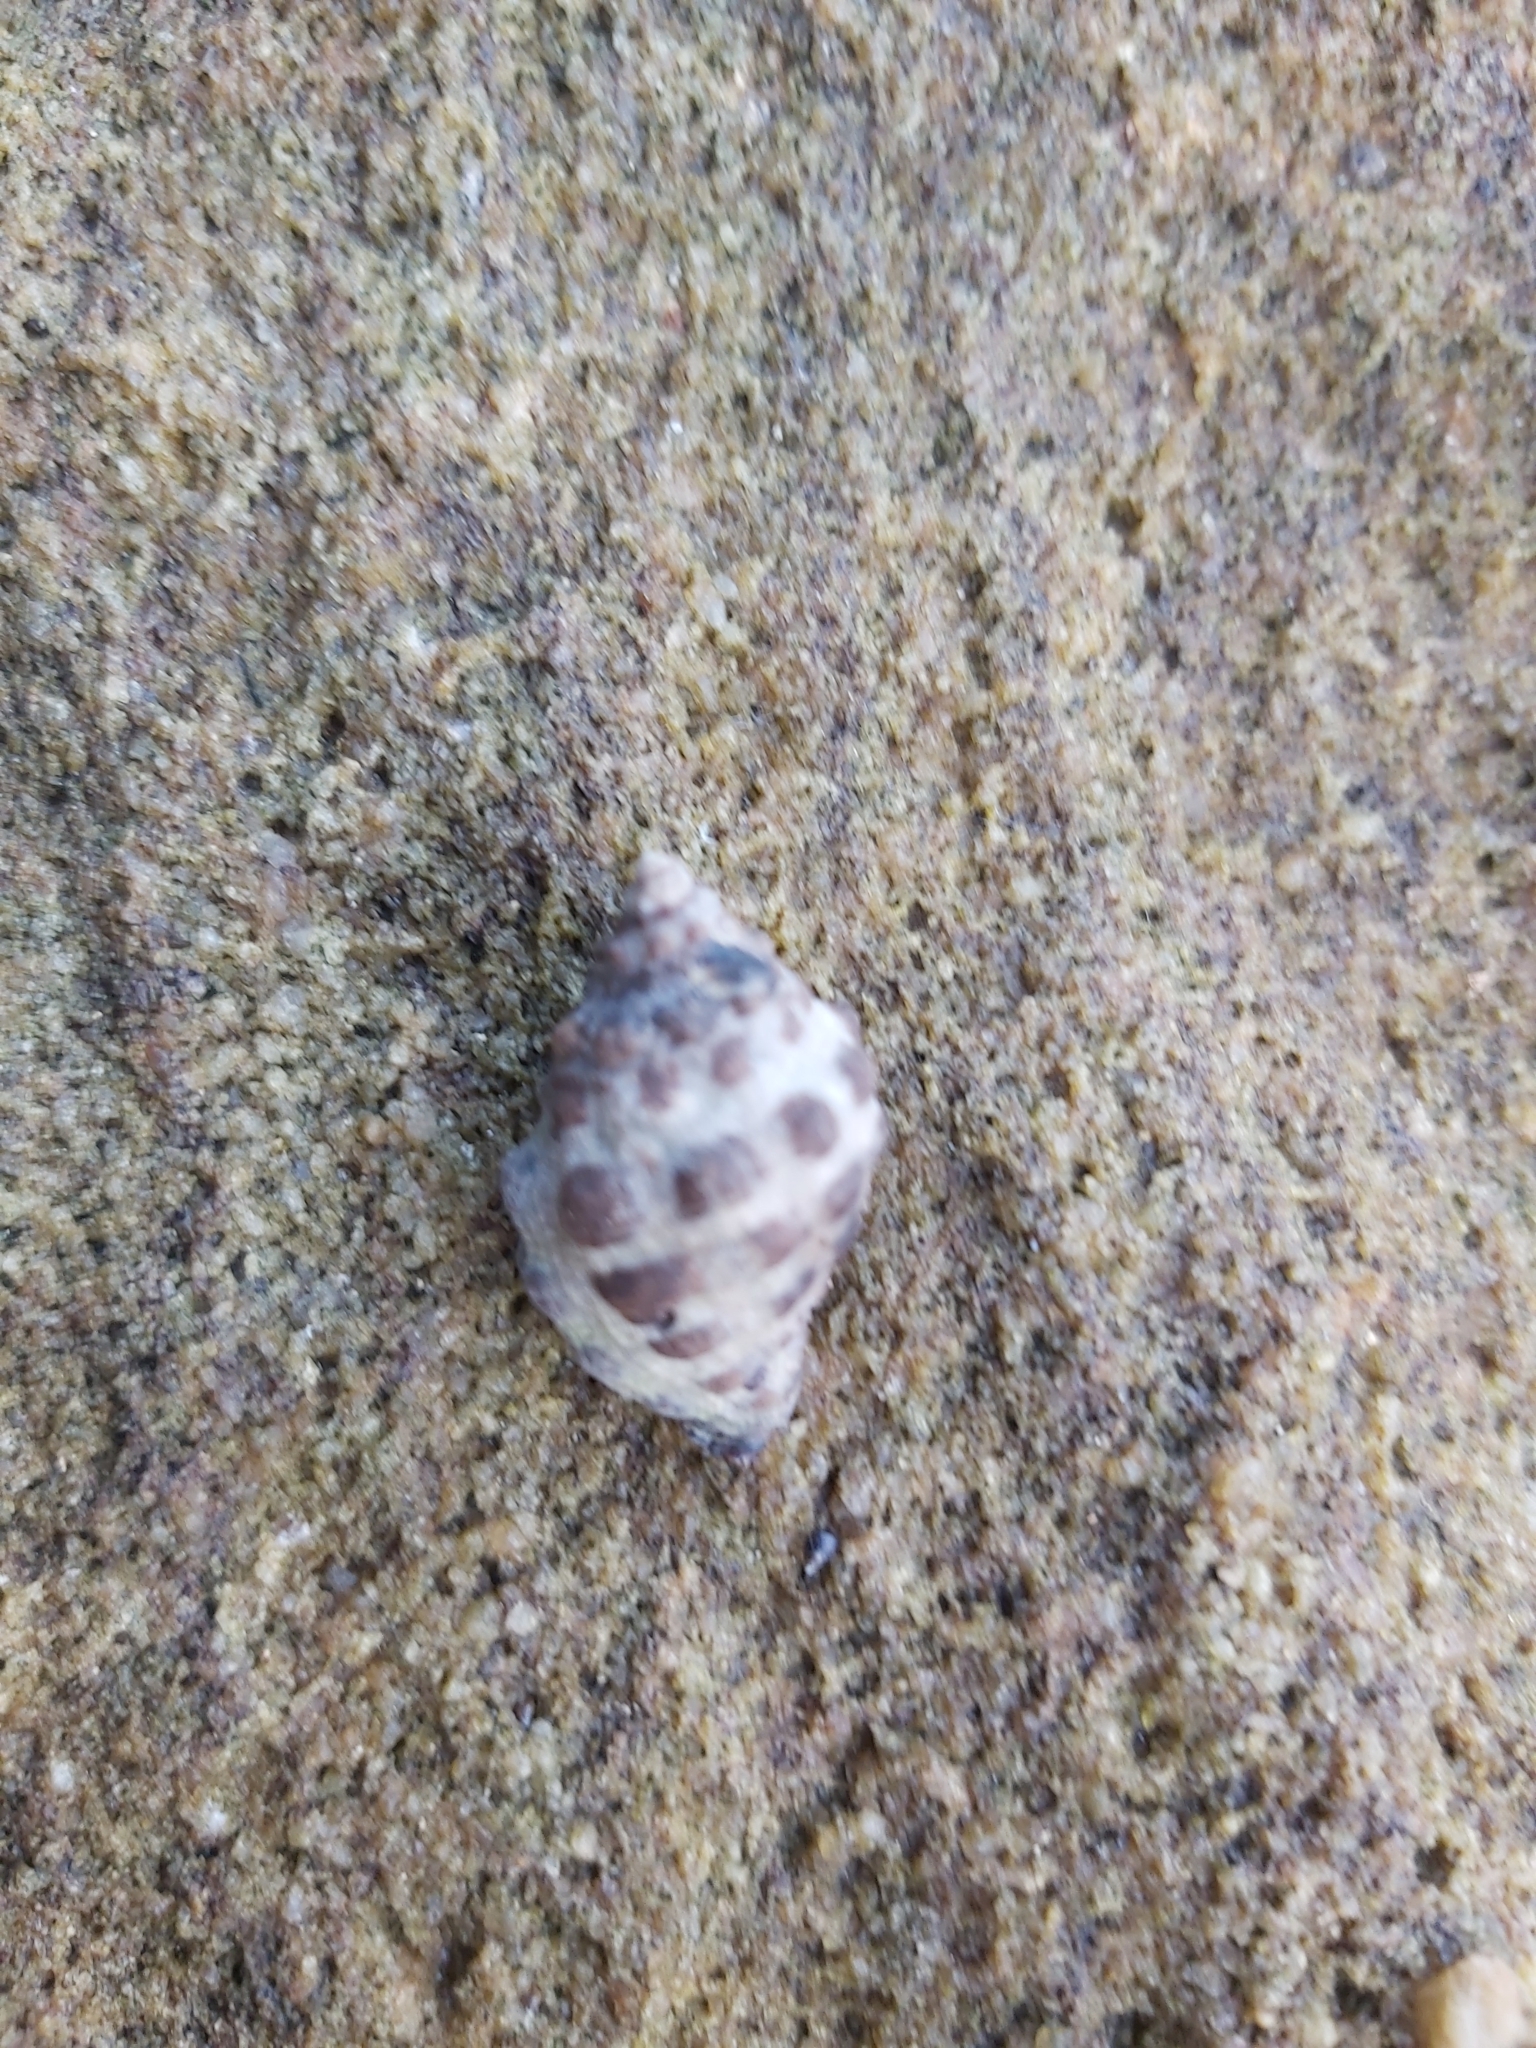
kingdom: Animalia
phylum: Mollusca
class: Gastropoda
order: Neogastropoda
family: Muricidae
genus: Tenguella
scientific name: Tenguella marginalba
